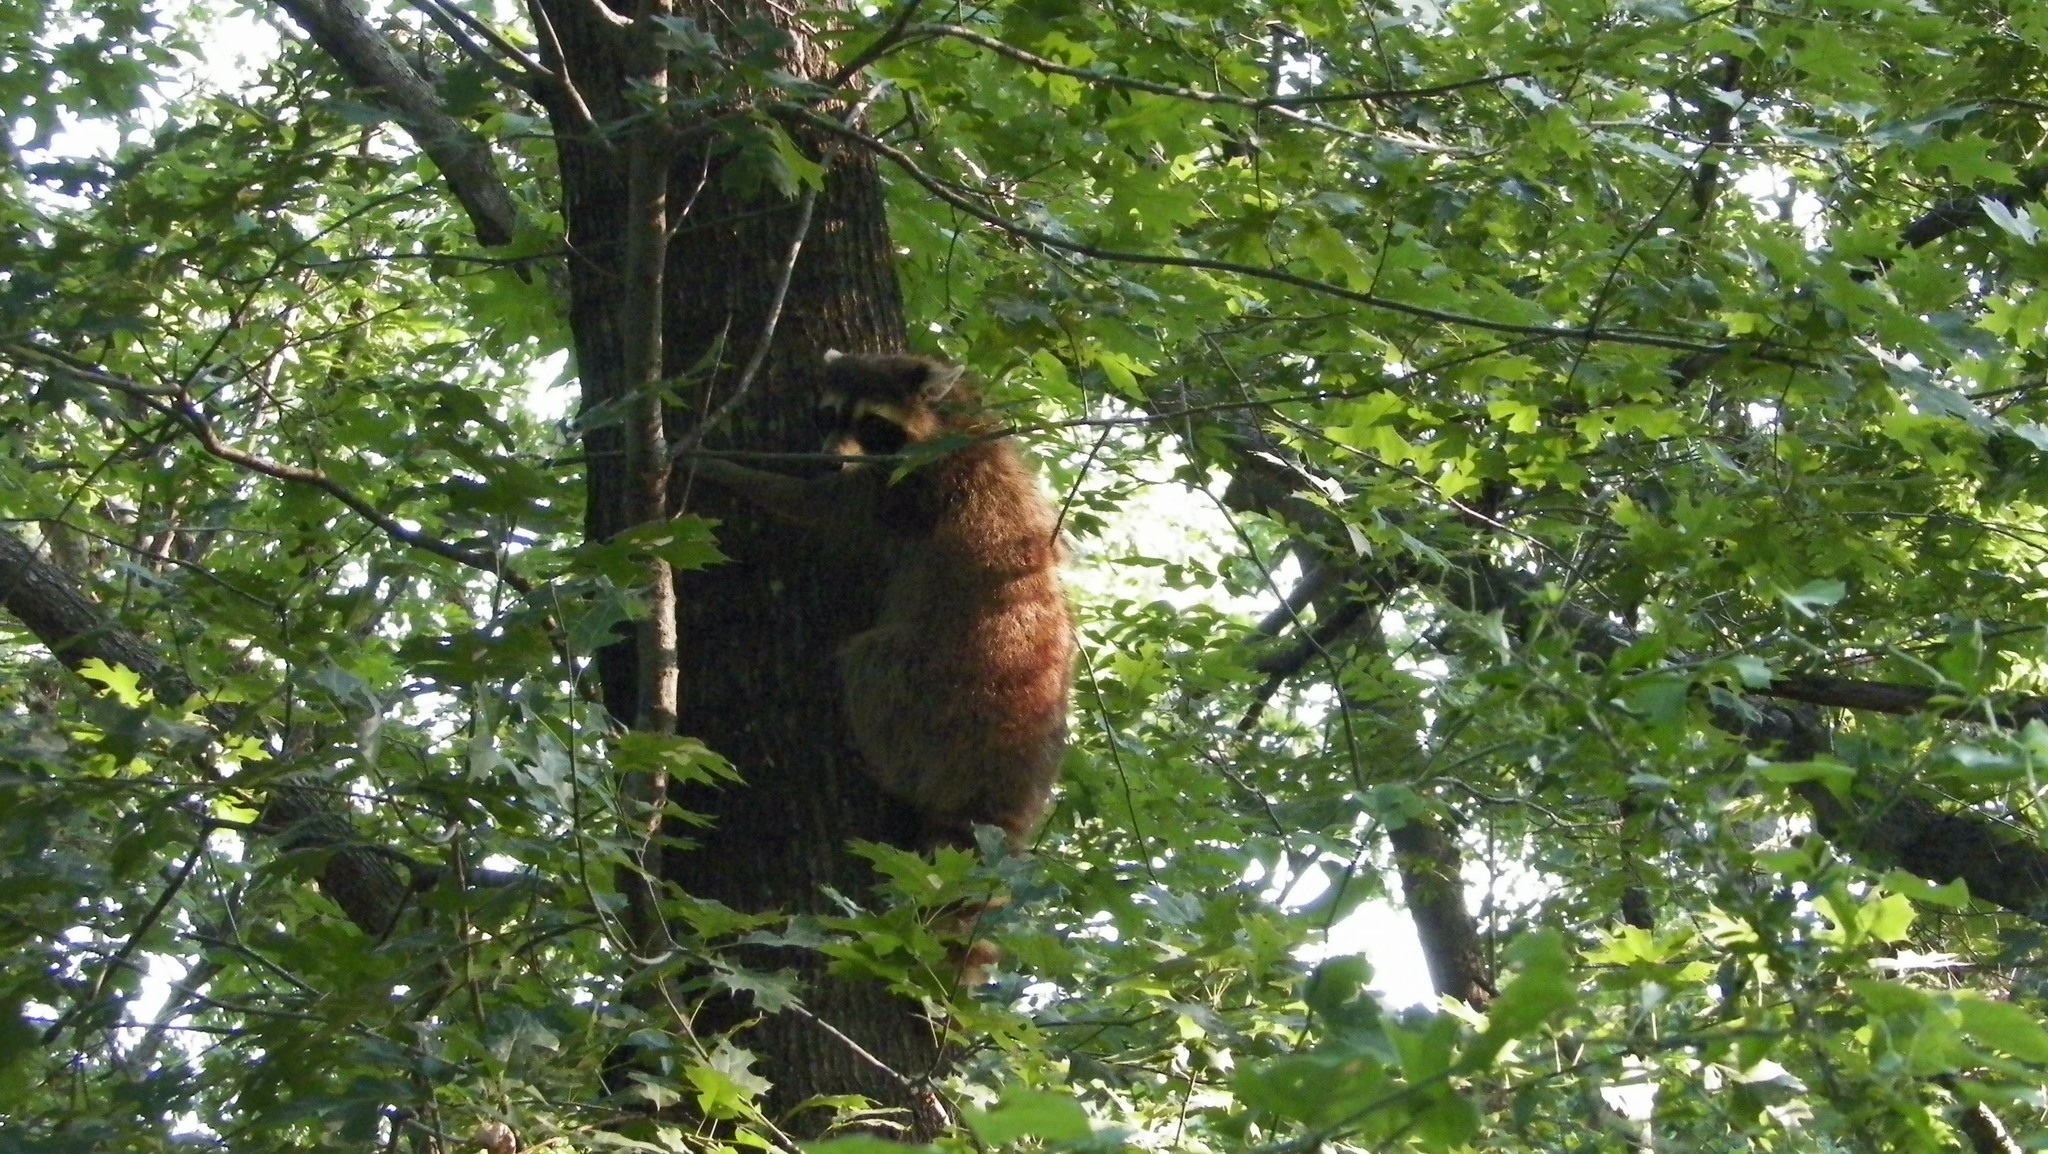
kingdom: Animalia
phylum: Chordata
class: Mammalia
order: Carnivora
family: Procyonidae
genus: Procyon
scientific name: Procyon lotor
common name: Raccoon
